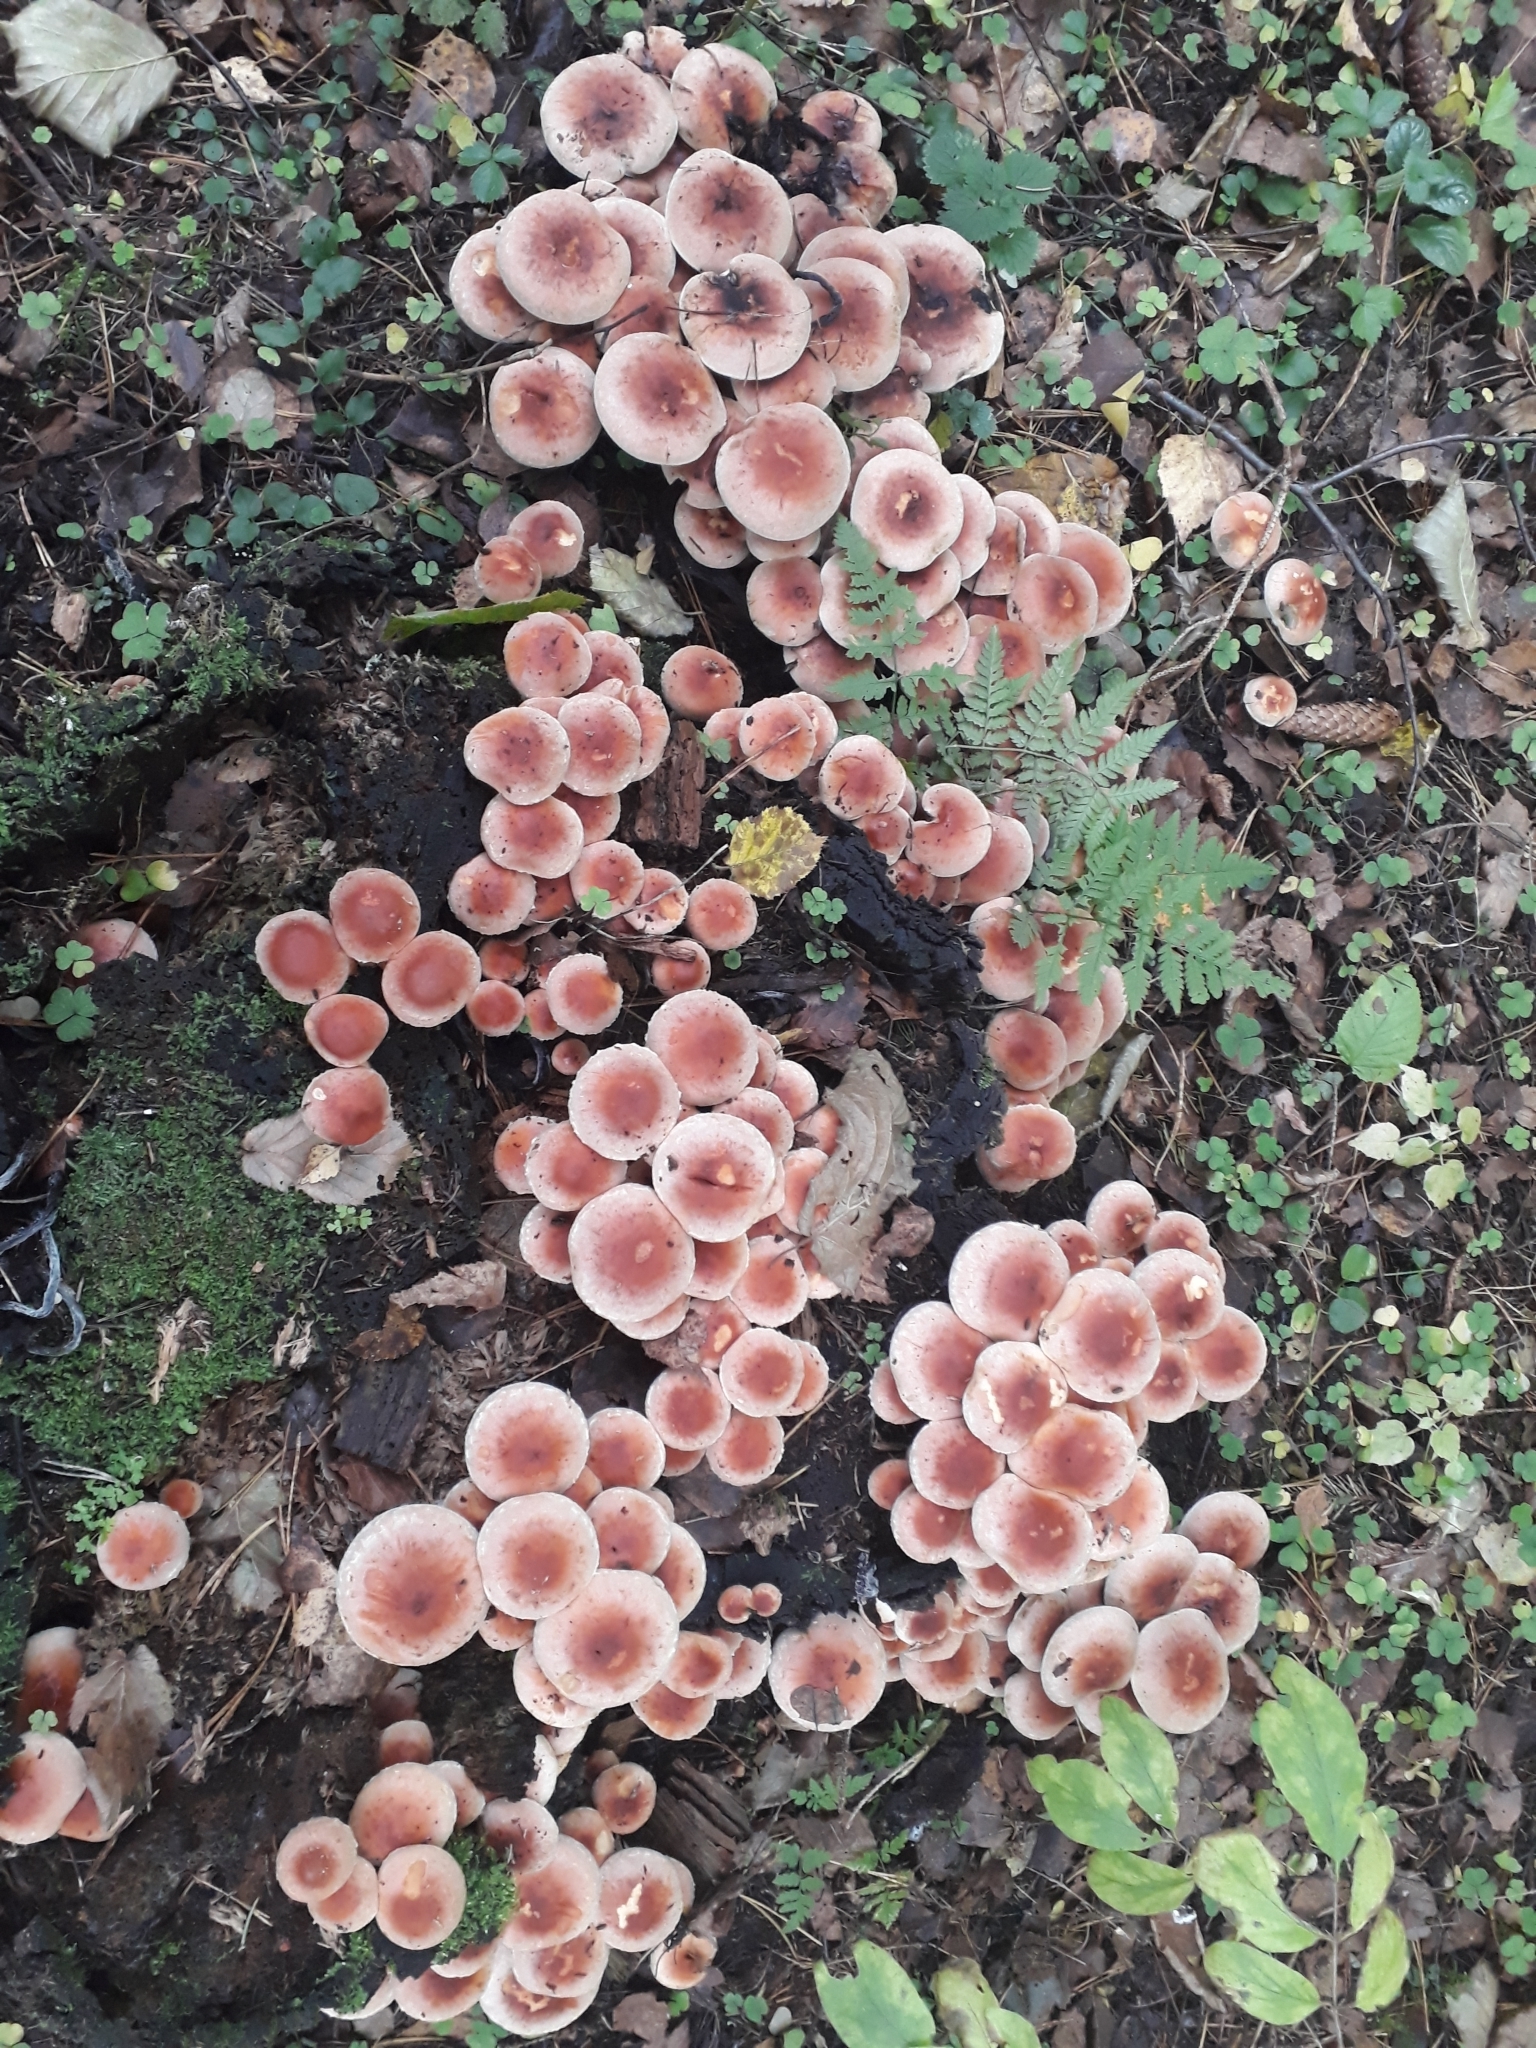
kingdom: Fungi
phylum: Basidiomycota
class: Agaricomycetes
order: Agaricales
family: Strophariaceae
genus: Hypholoma
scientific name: Hypholoma lateritium
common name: Brick caps
